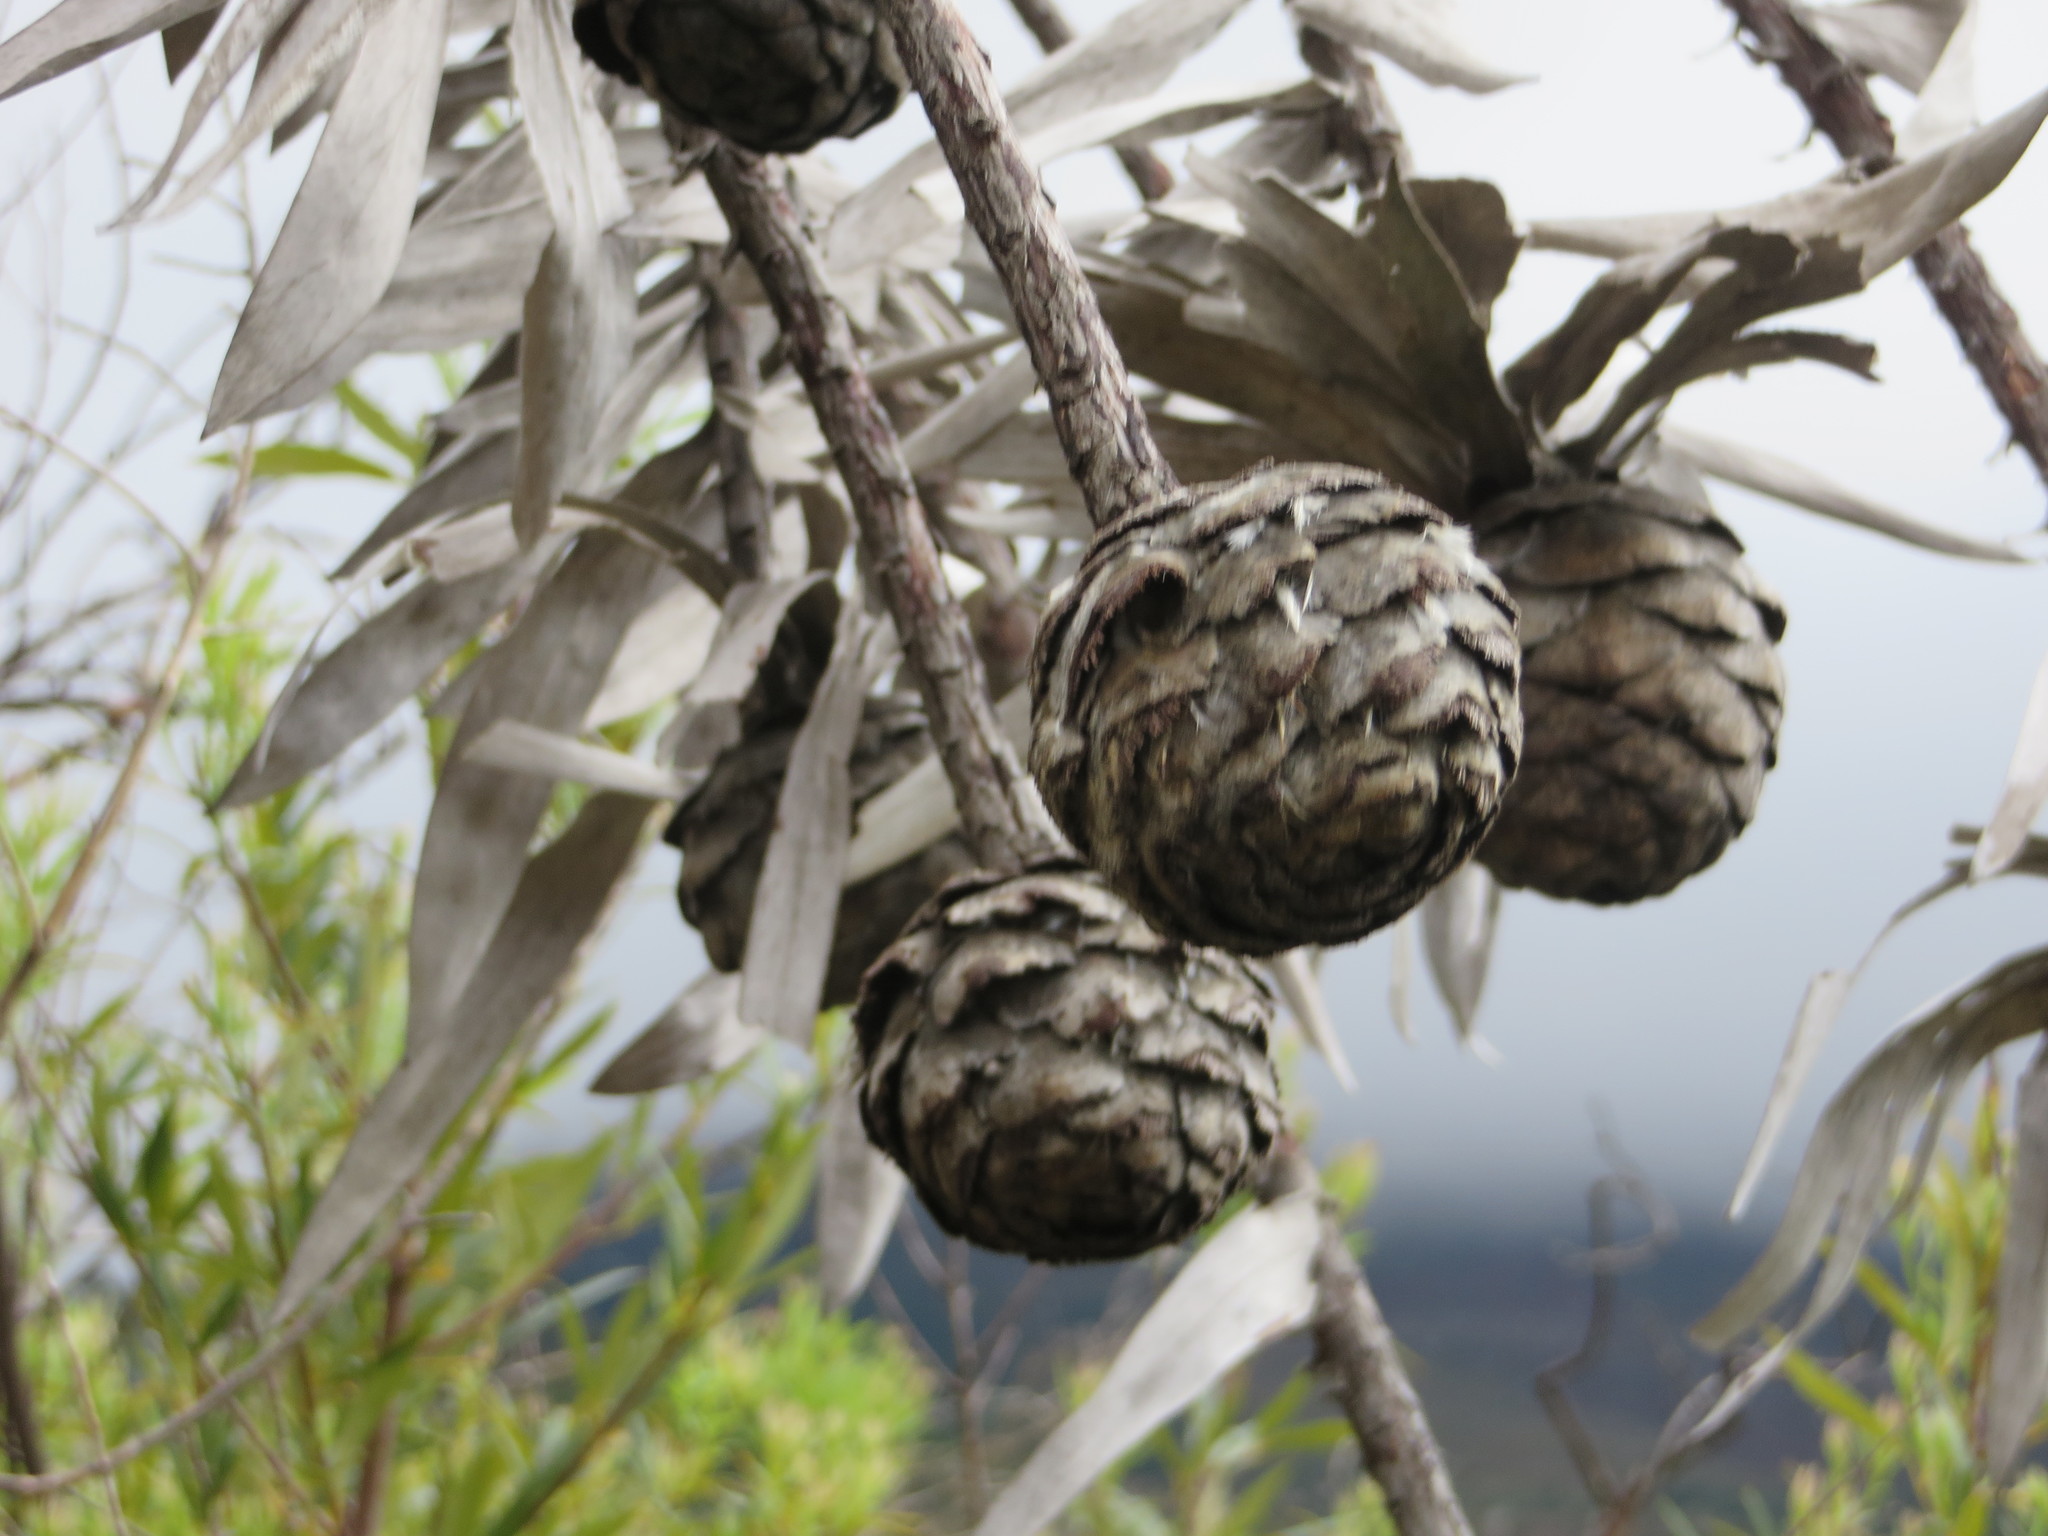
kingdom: Plantae
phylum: Tracheophyta
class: Magnoliopsida
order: Proteales
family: Proteaceae
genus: Leucadendron
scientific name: Leucadendron argenteum
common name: Cape silver tree
